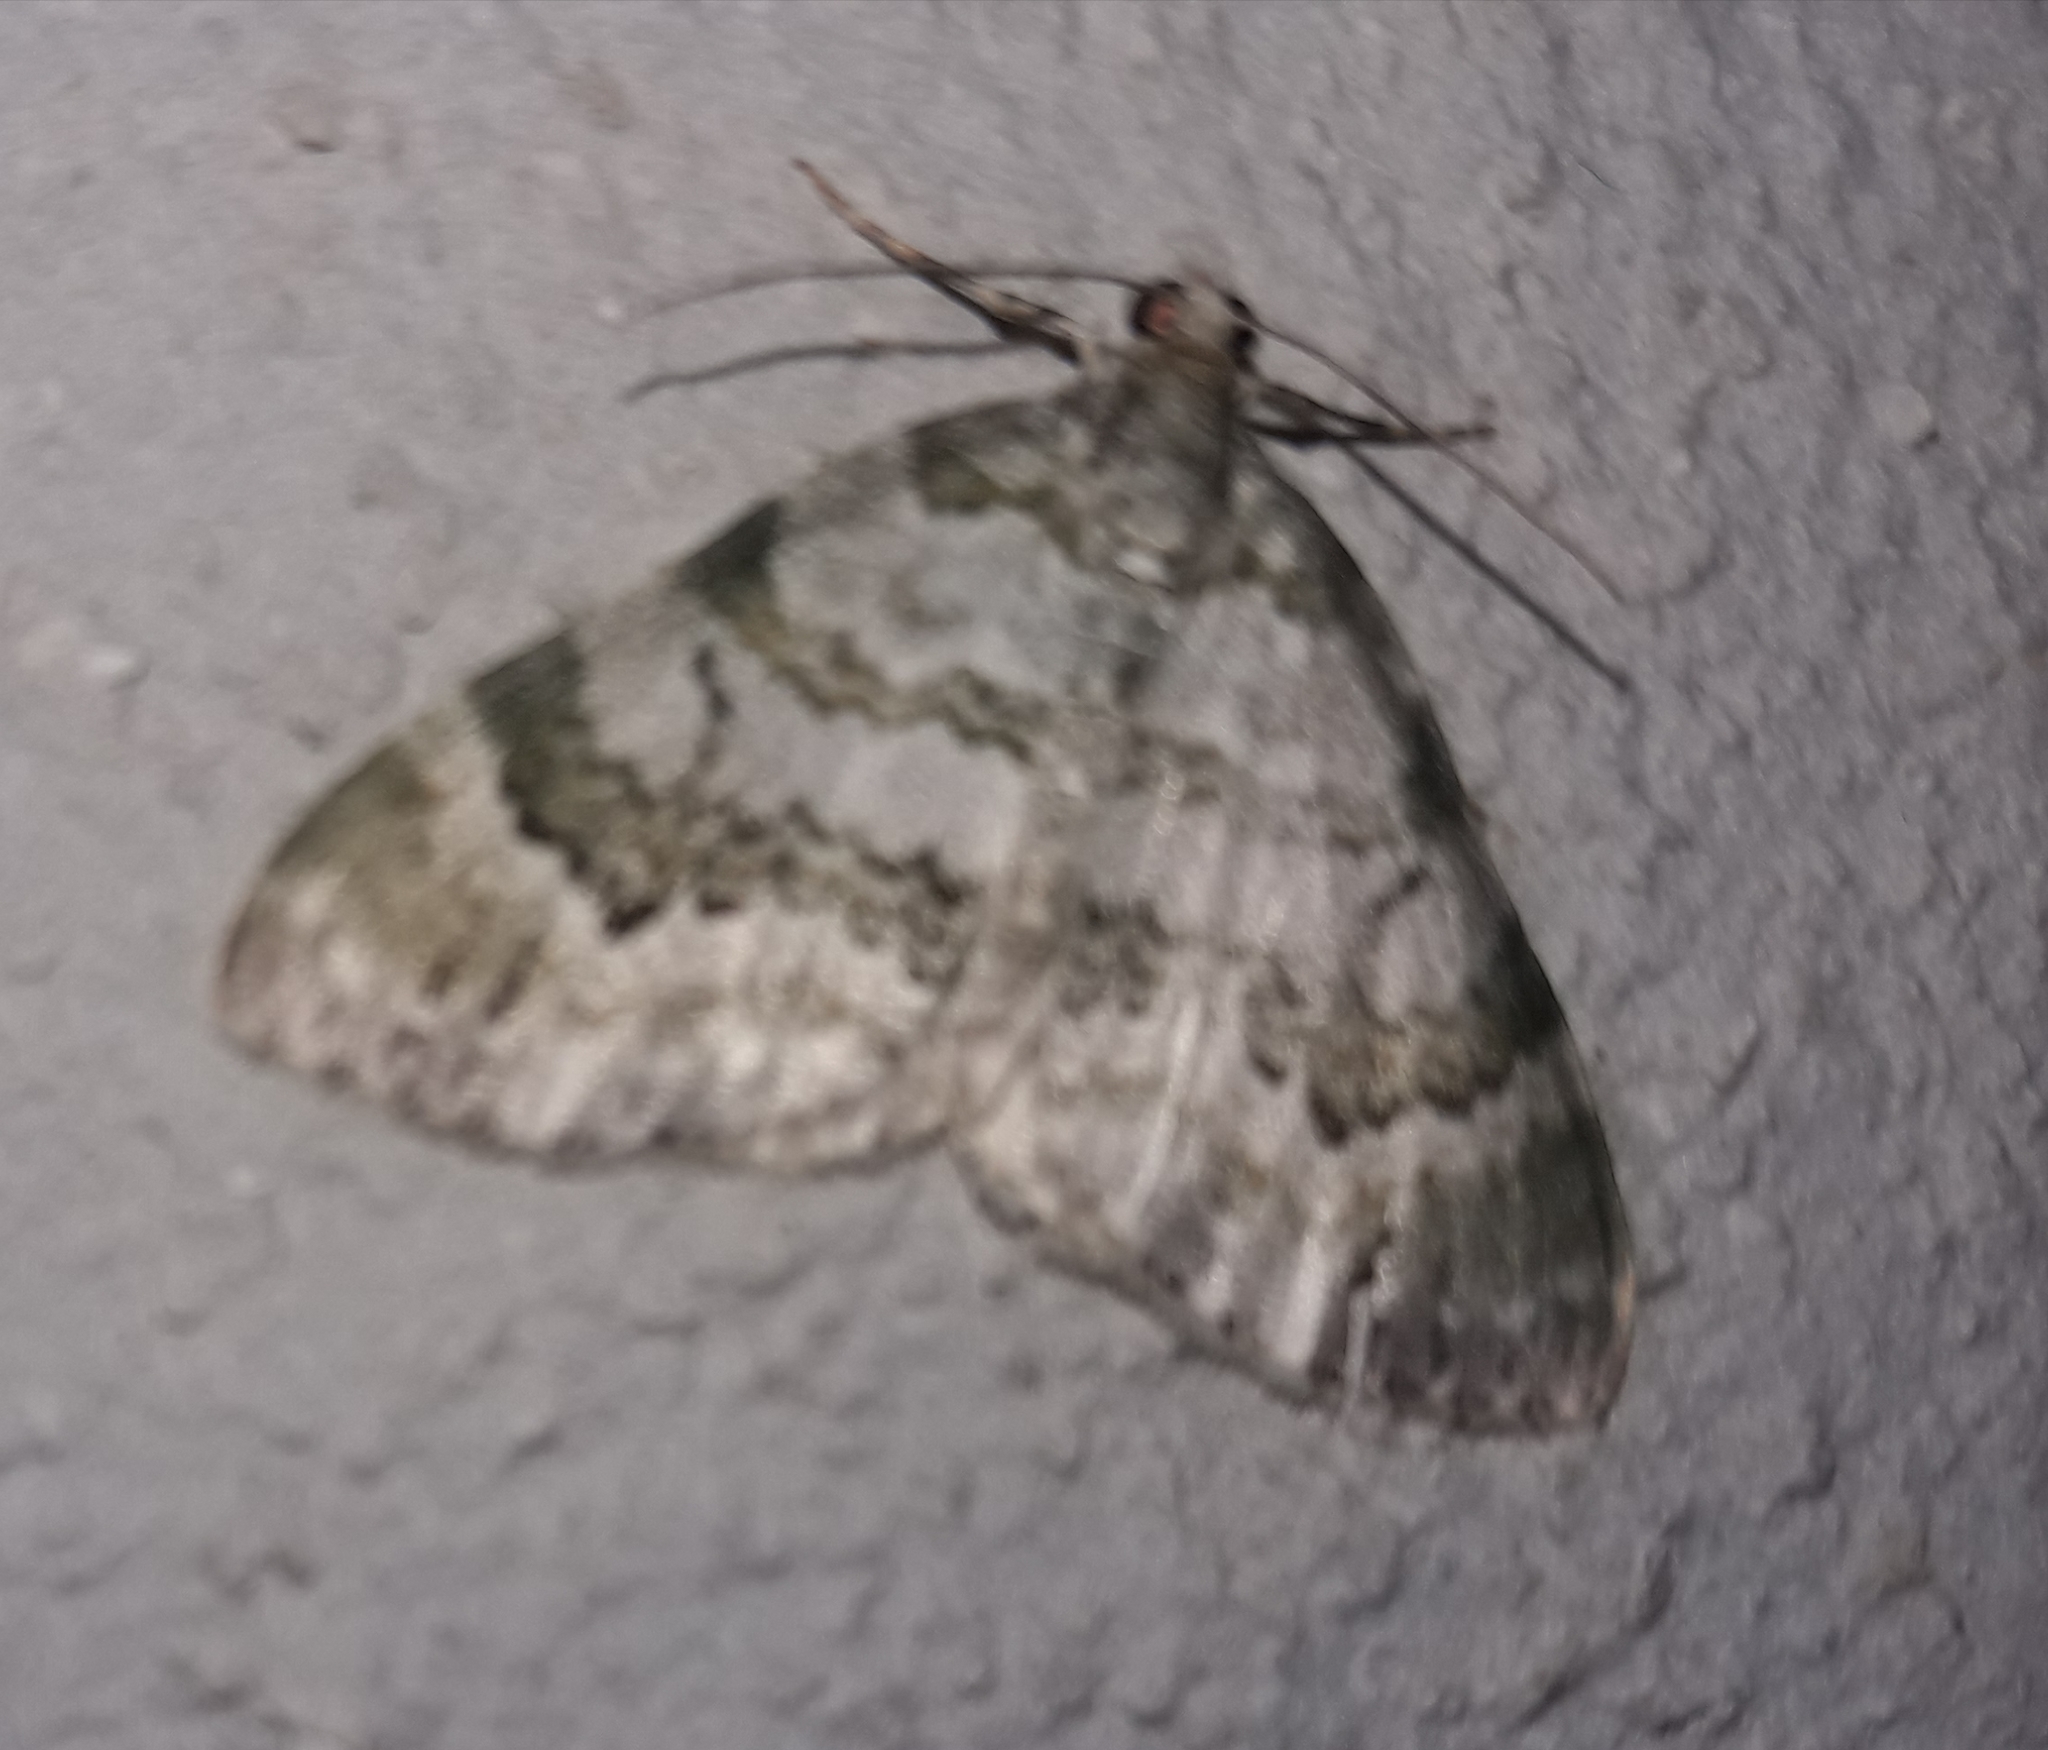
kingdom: Animalia
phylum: Arthropoda
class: Insecta
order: Lepidoptera
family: Geometridae
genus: Euphyia
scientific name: Euphyia colonaria
